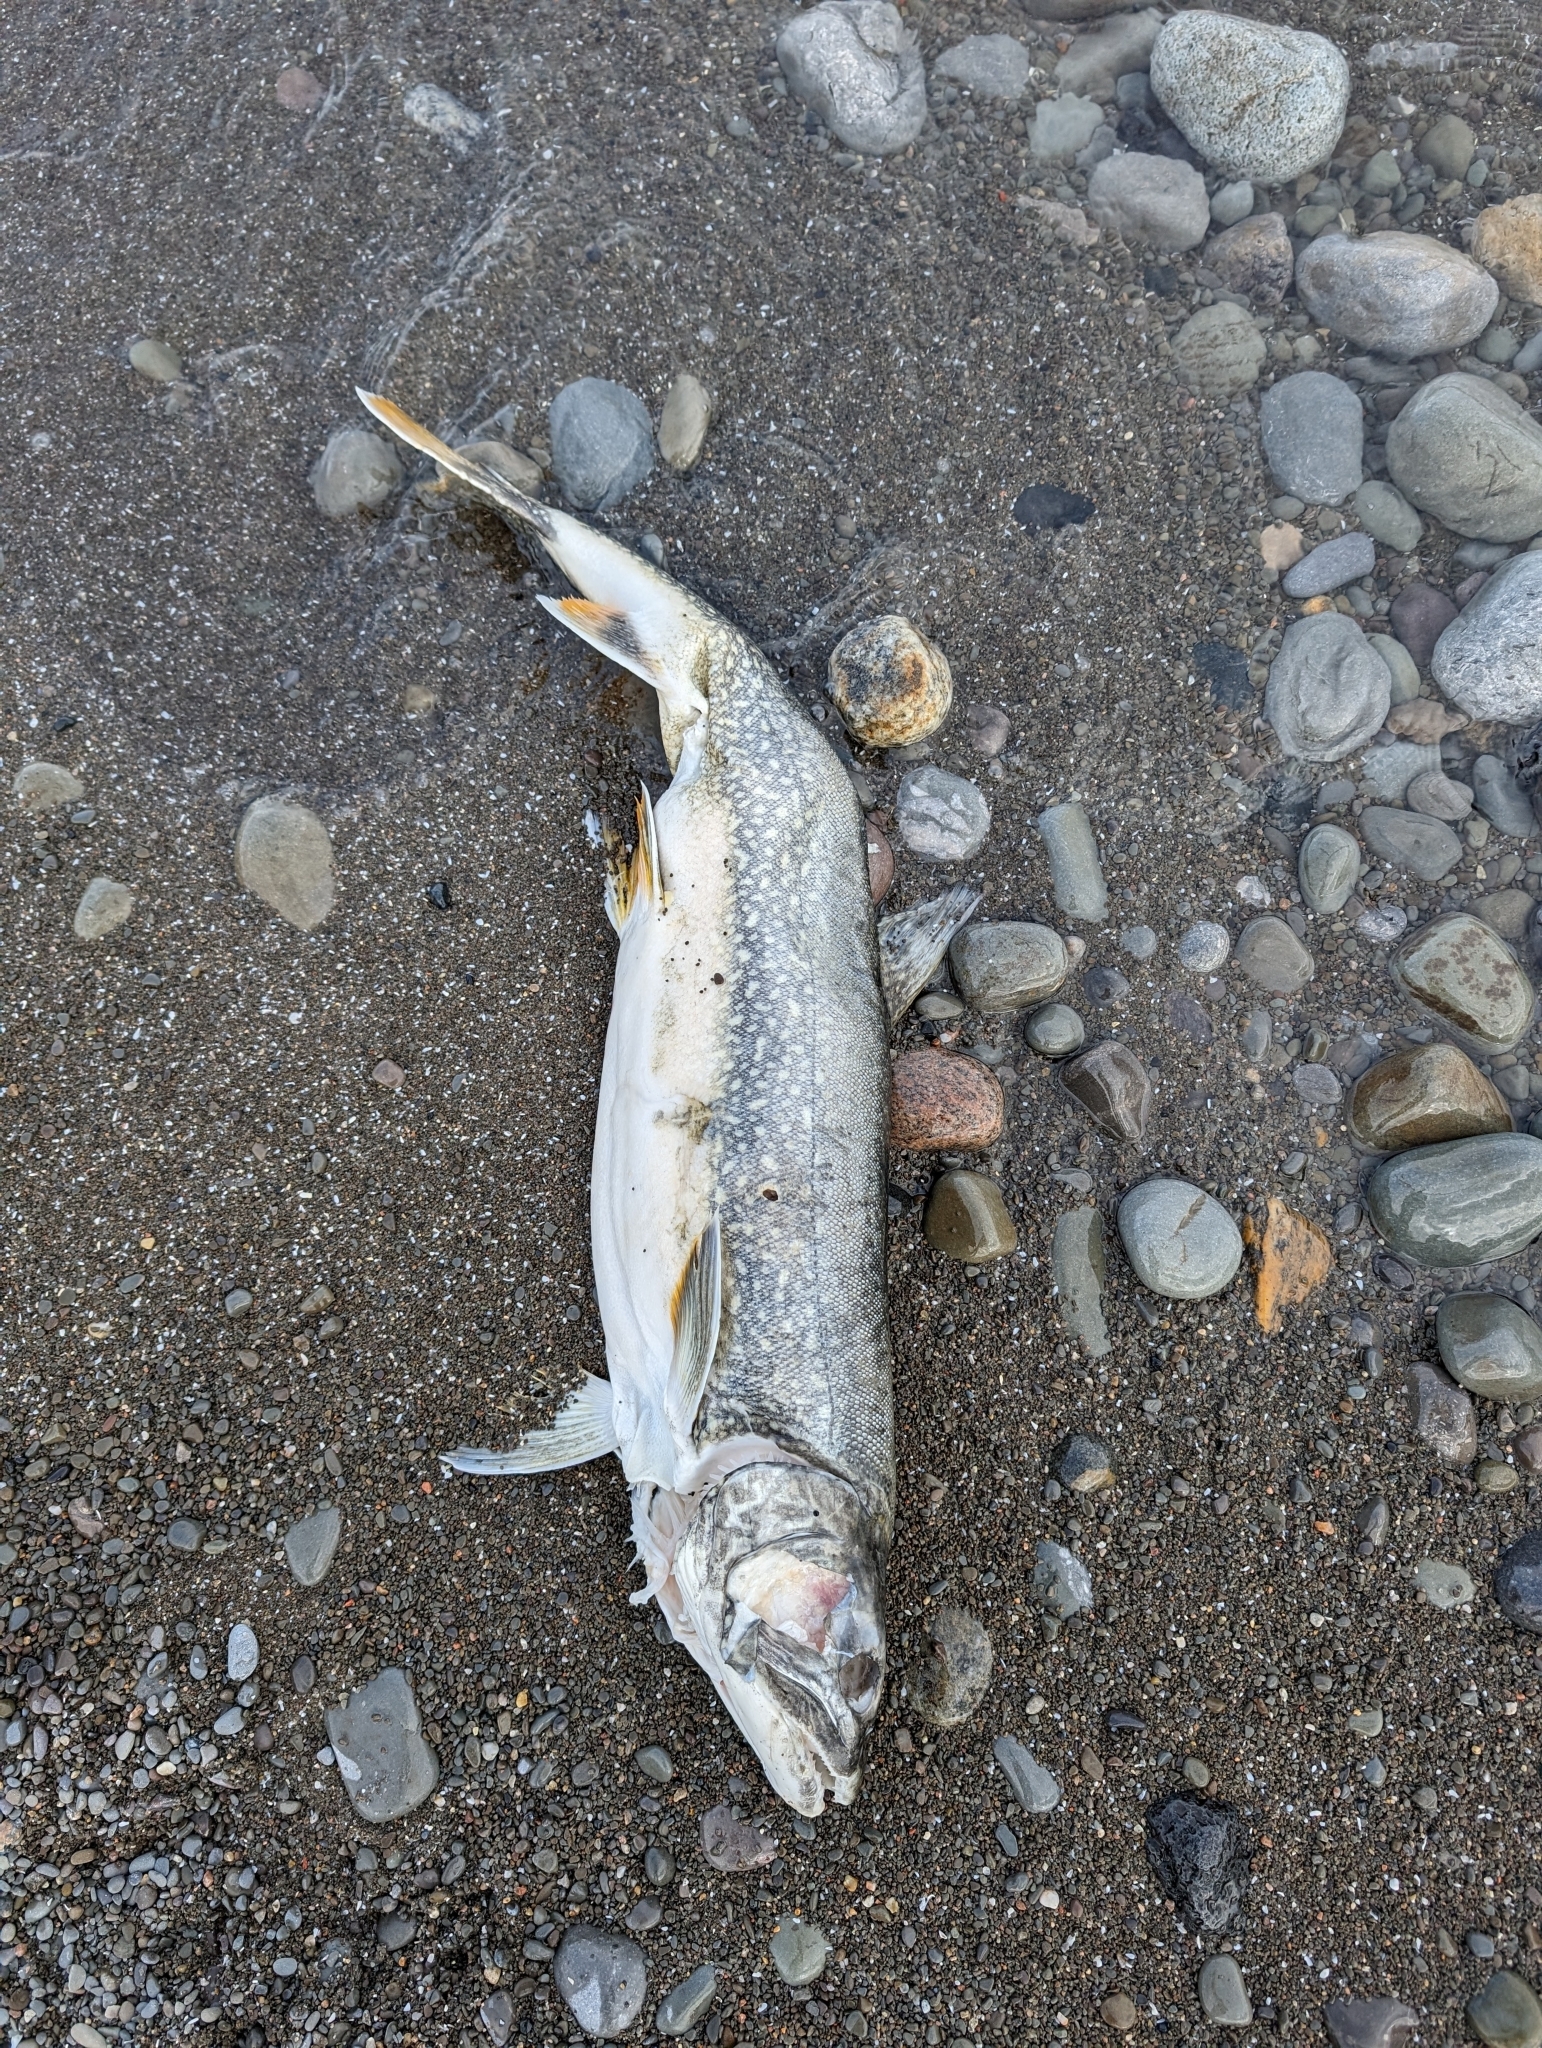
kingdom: Animalia
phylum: Chordata
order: Salmoniformes
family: Salmonidae
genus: Salvelinus
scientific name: Salvelinus namaycush
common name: American lake charr
